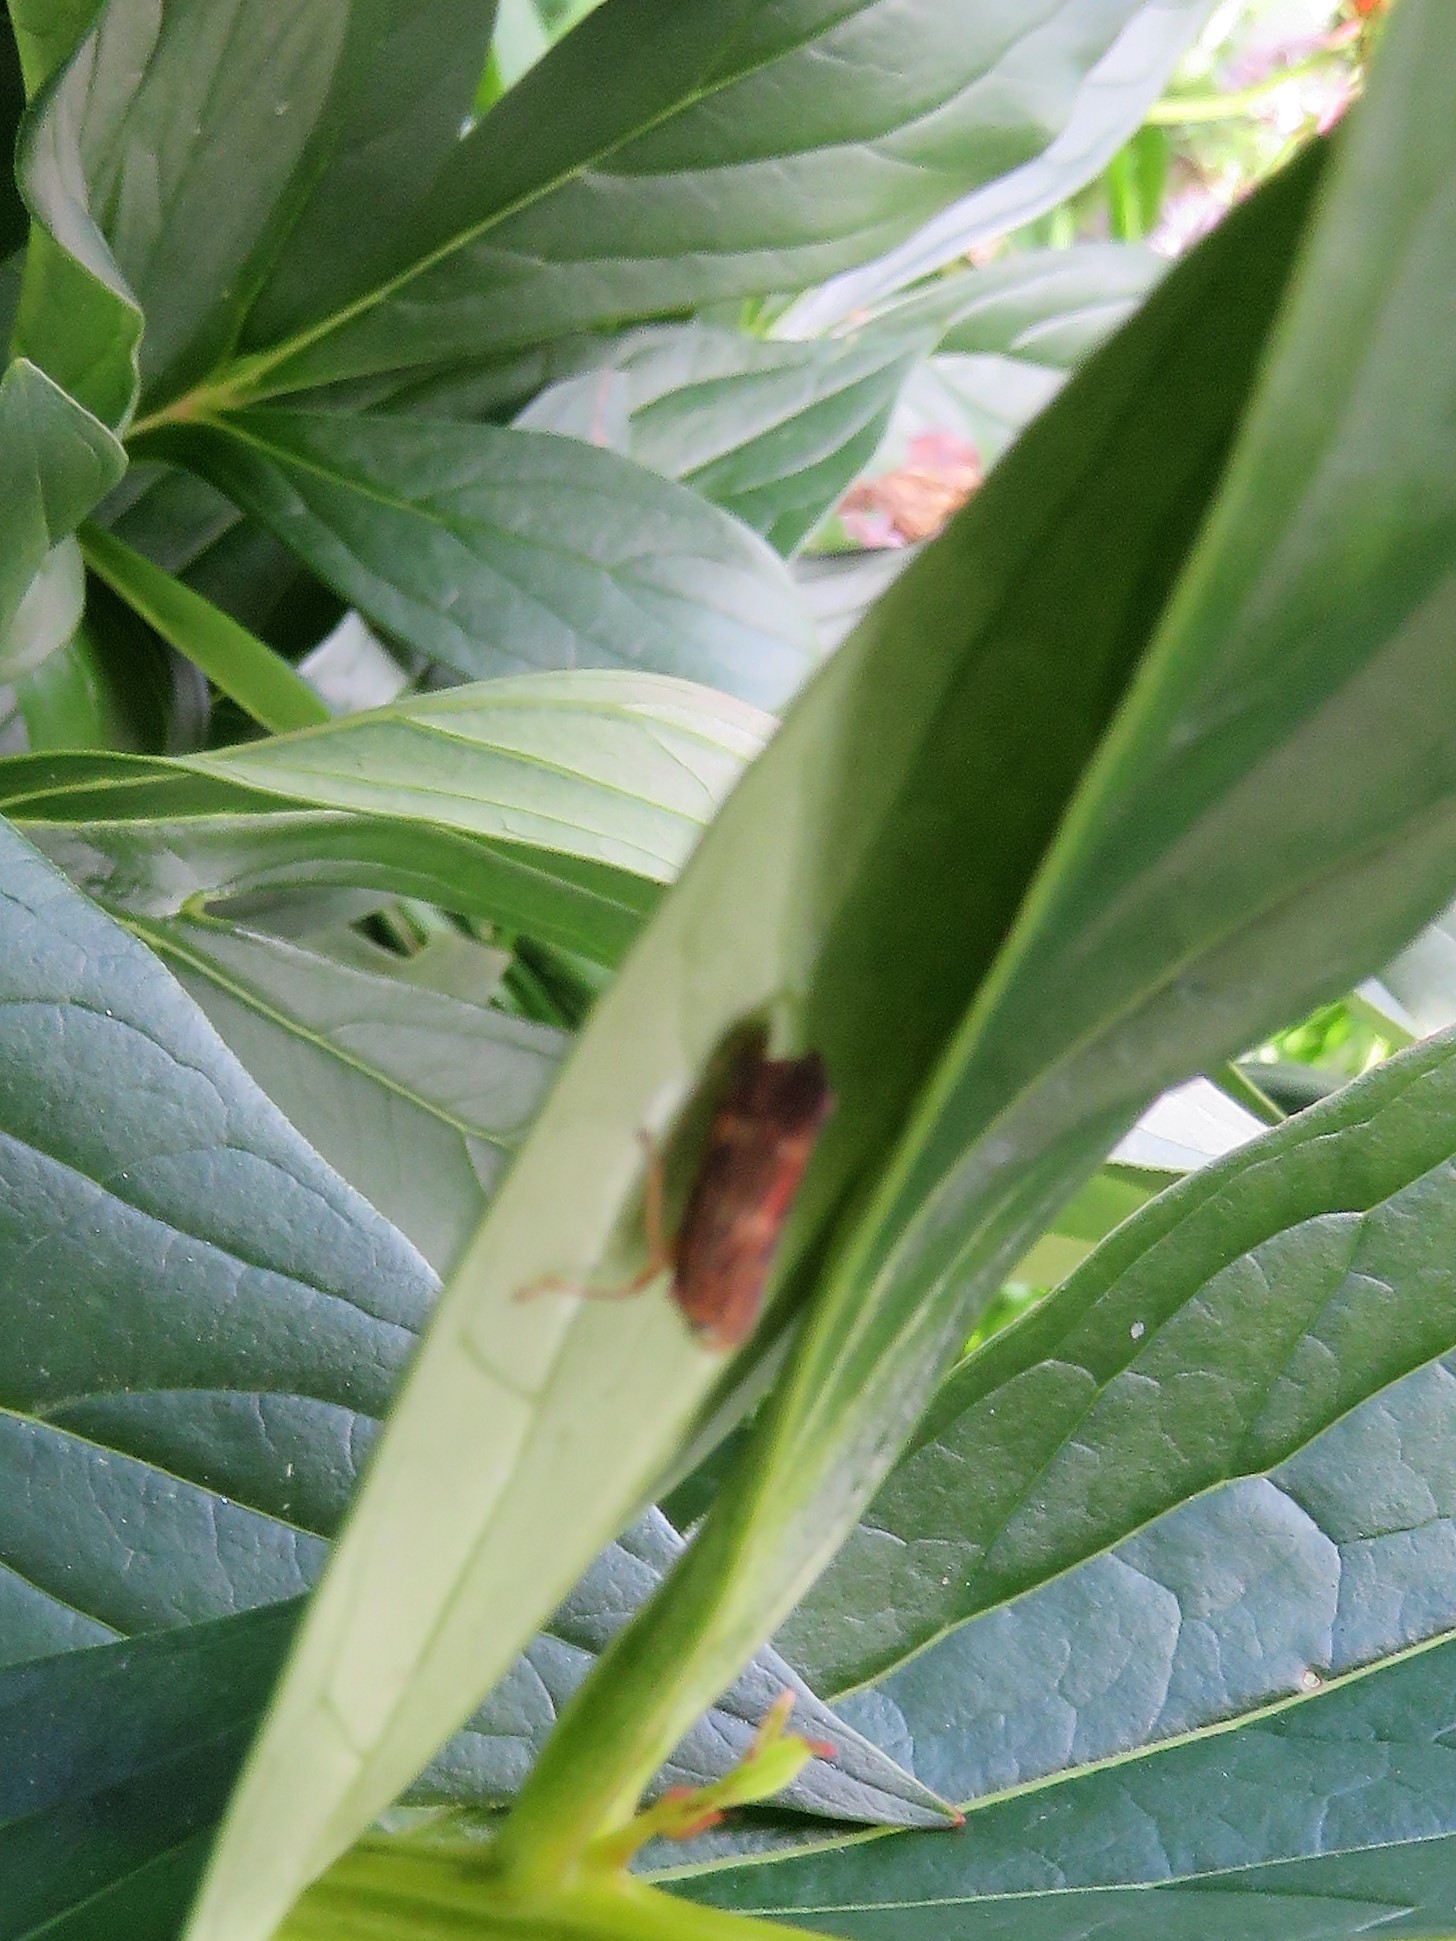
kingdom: Animalia
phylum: Arthropoda
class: Insecta
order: Hemiptera
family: Cicadellidae
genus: Jikradia
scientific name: Jikradia olitoria
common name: Coppery leafhopper
